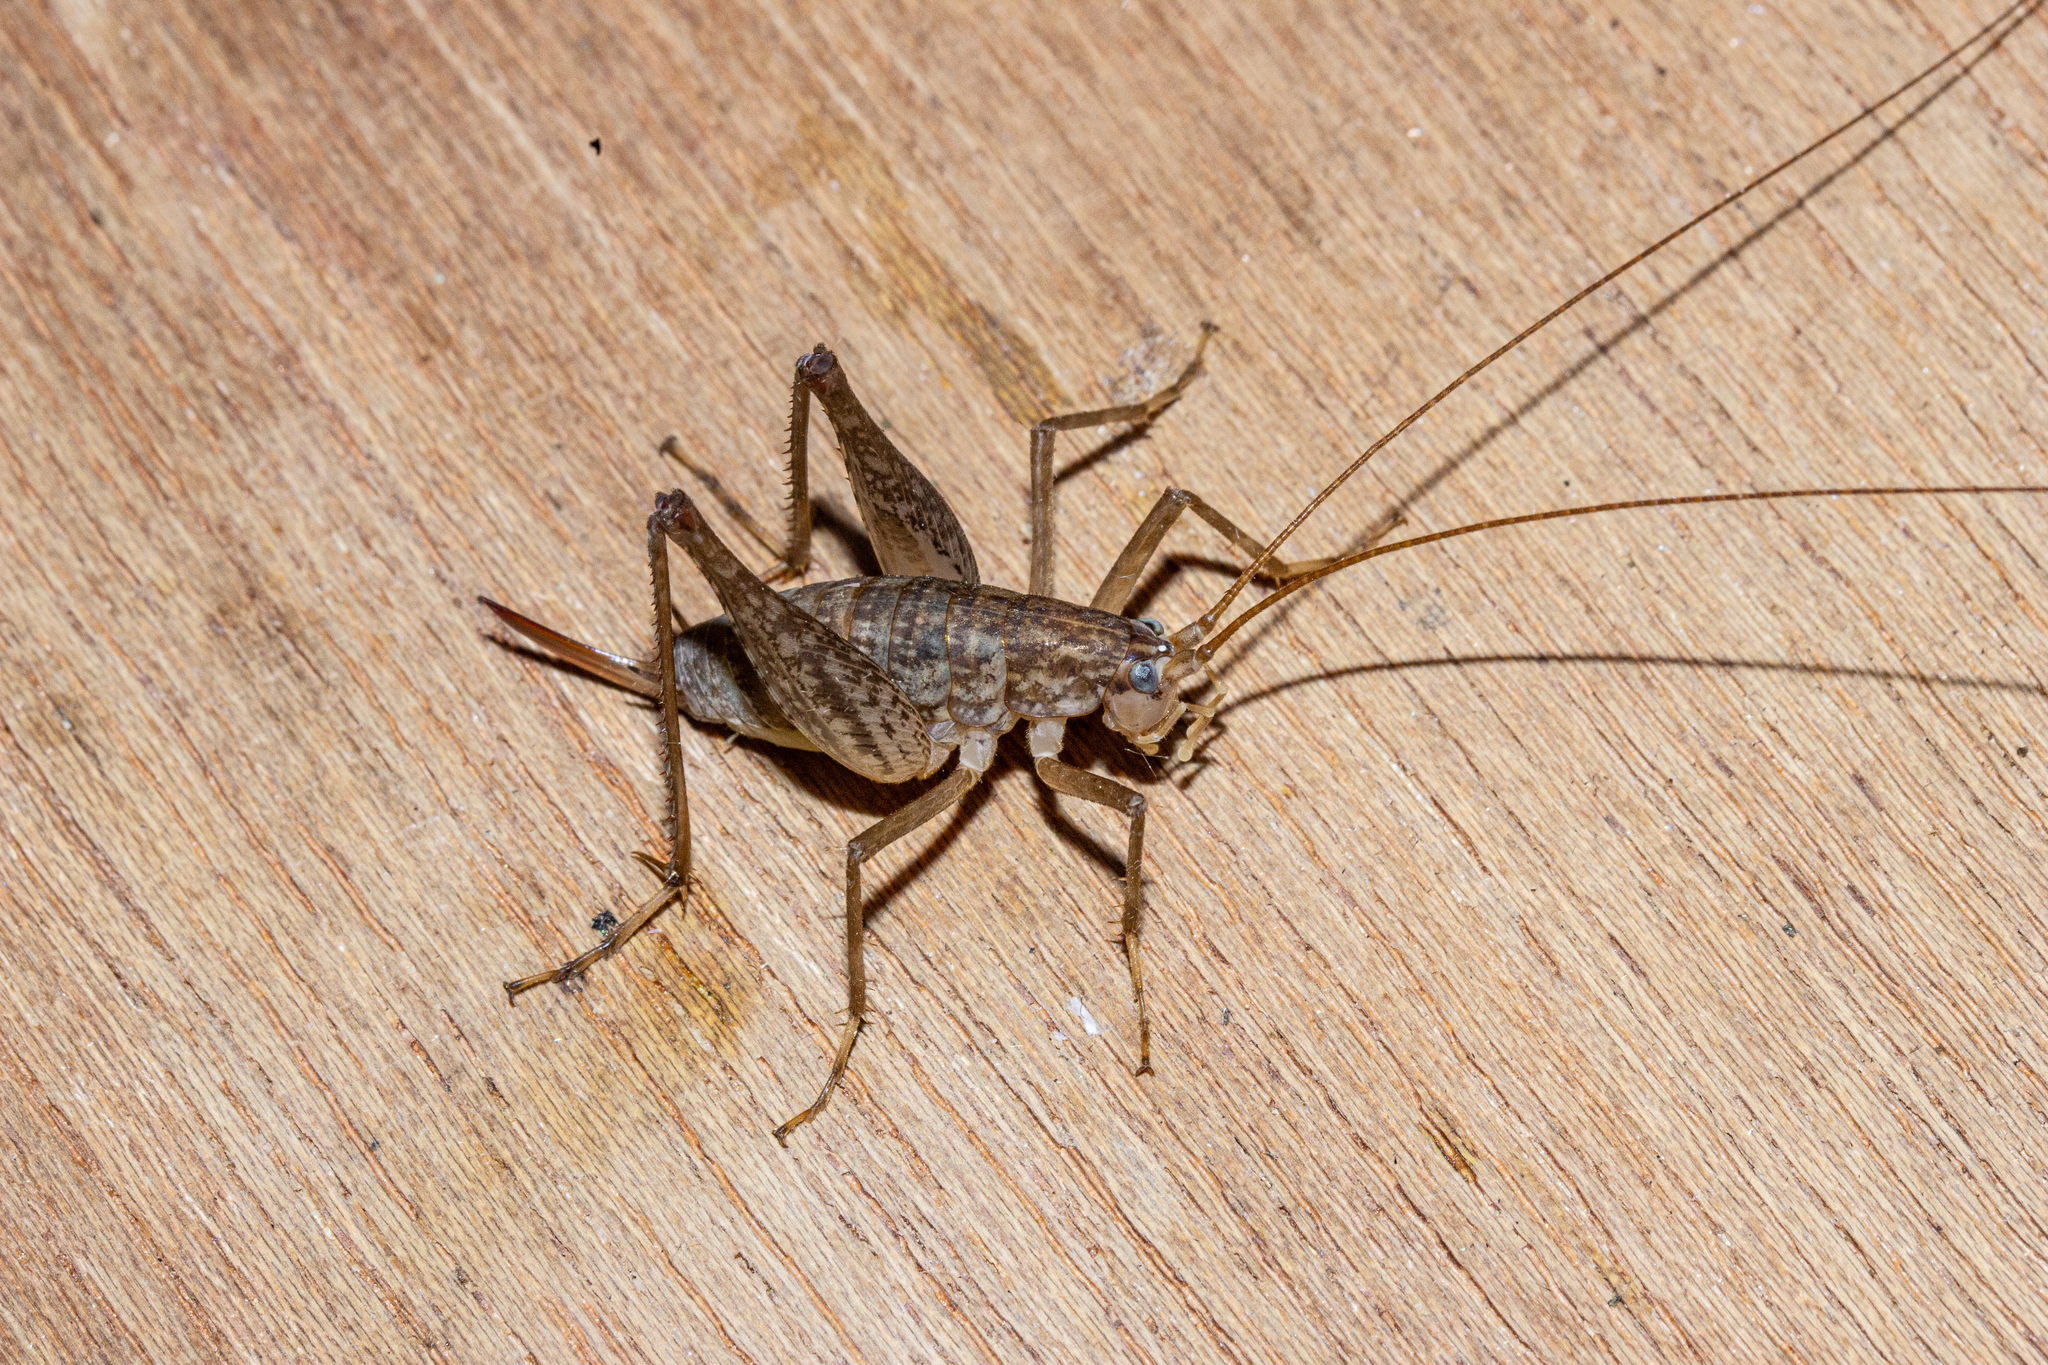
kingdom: Animalia
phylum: Arthropoda
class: Insecta
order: Orthoptera
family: Rhaphidophoridae
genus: Pharmacus
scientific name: Pharmacus cochleatus
